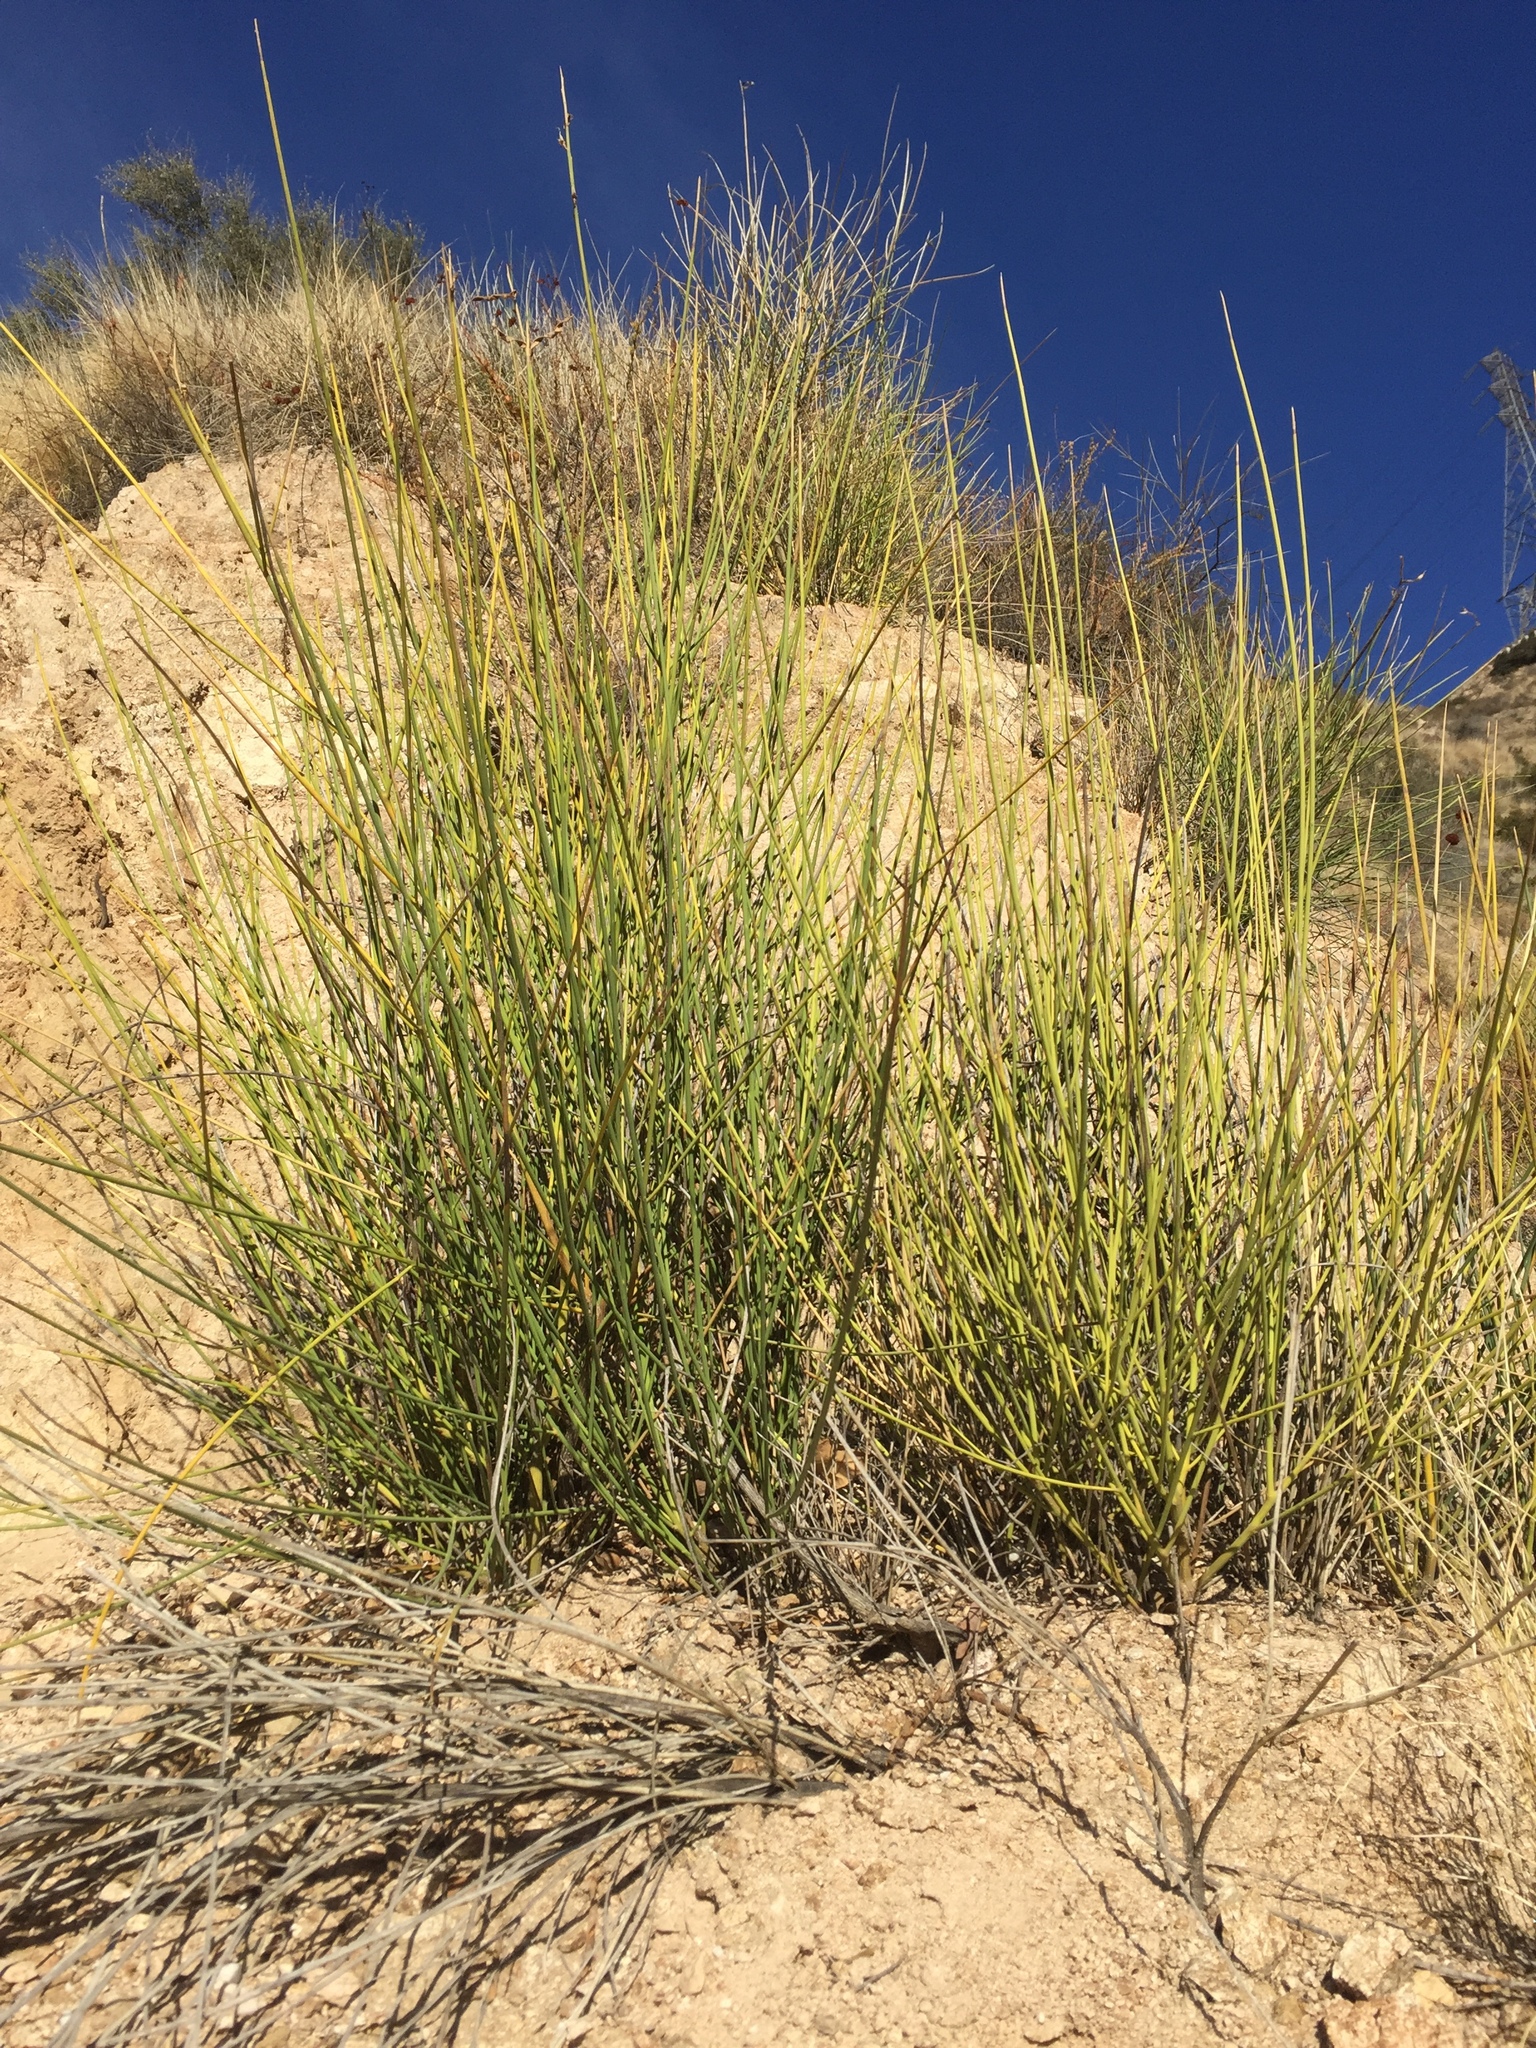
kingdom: Plantae
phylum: Tracheophyta
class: Magnoliopsida
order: Fabales
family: Fabaceae
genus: Spartium
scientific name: Spartium junceum
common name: Spanish broom
